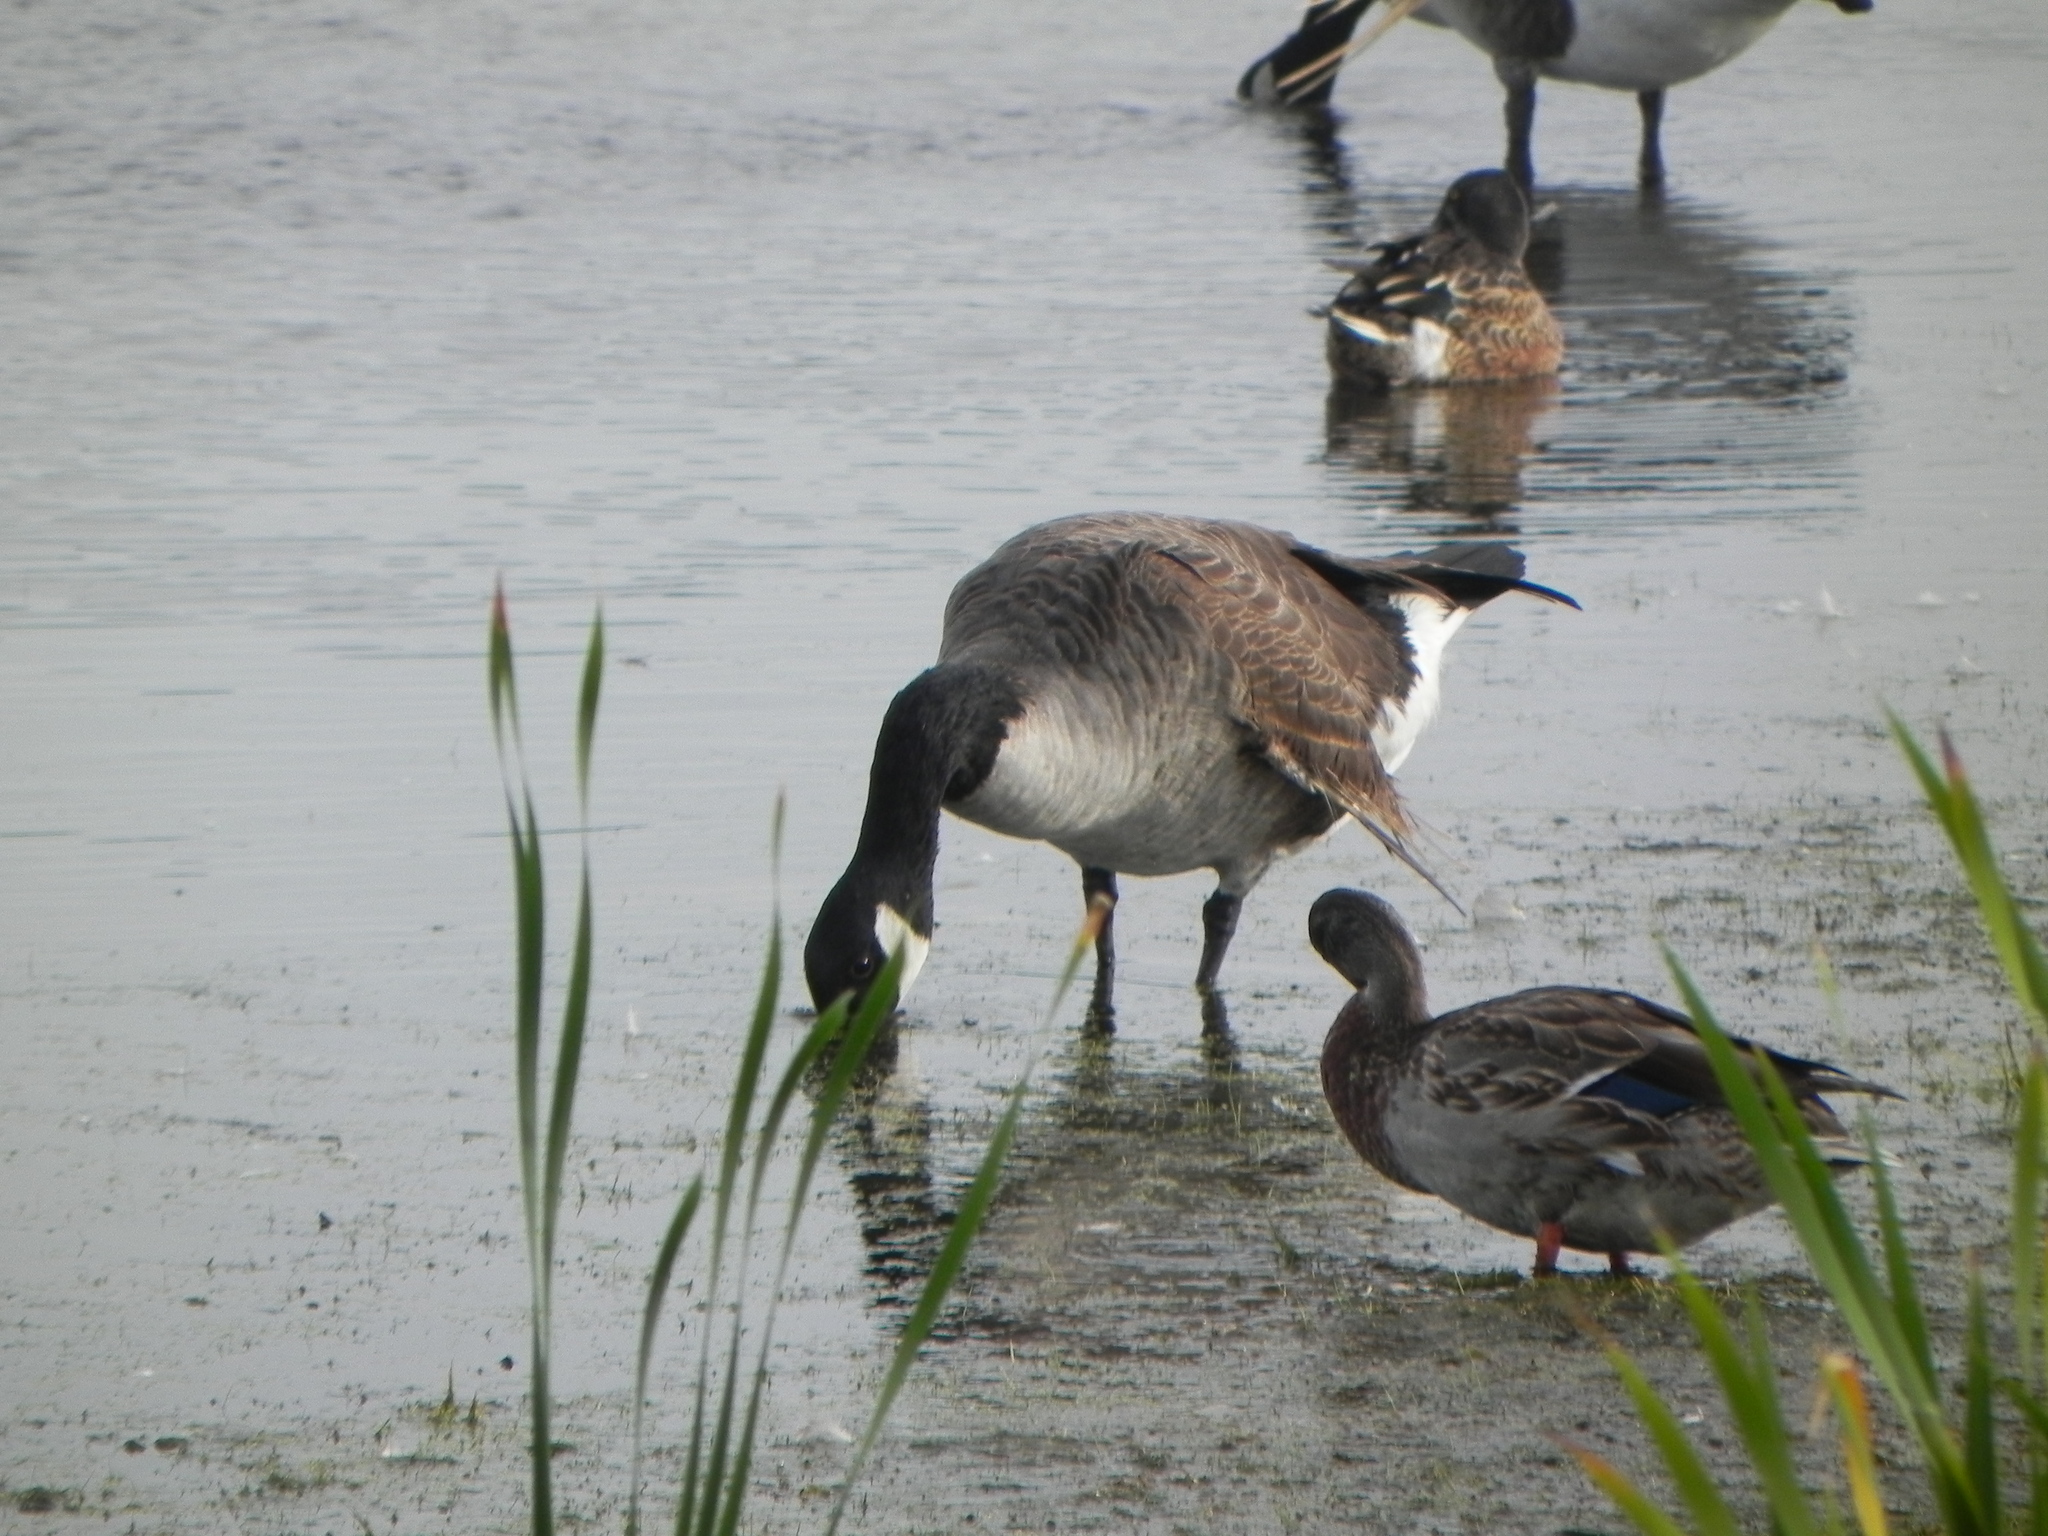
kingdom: Animalia
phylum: Chordata
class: Aves
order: Anseriformes
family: Anatidae
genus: Branta
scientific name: Branta canadensis
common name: Canada goose
